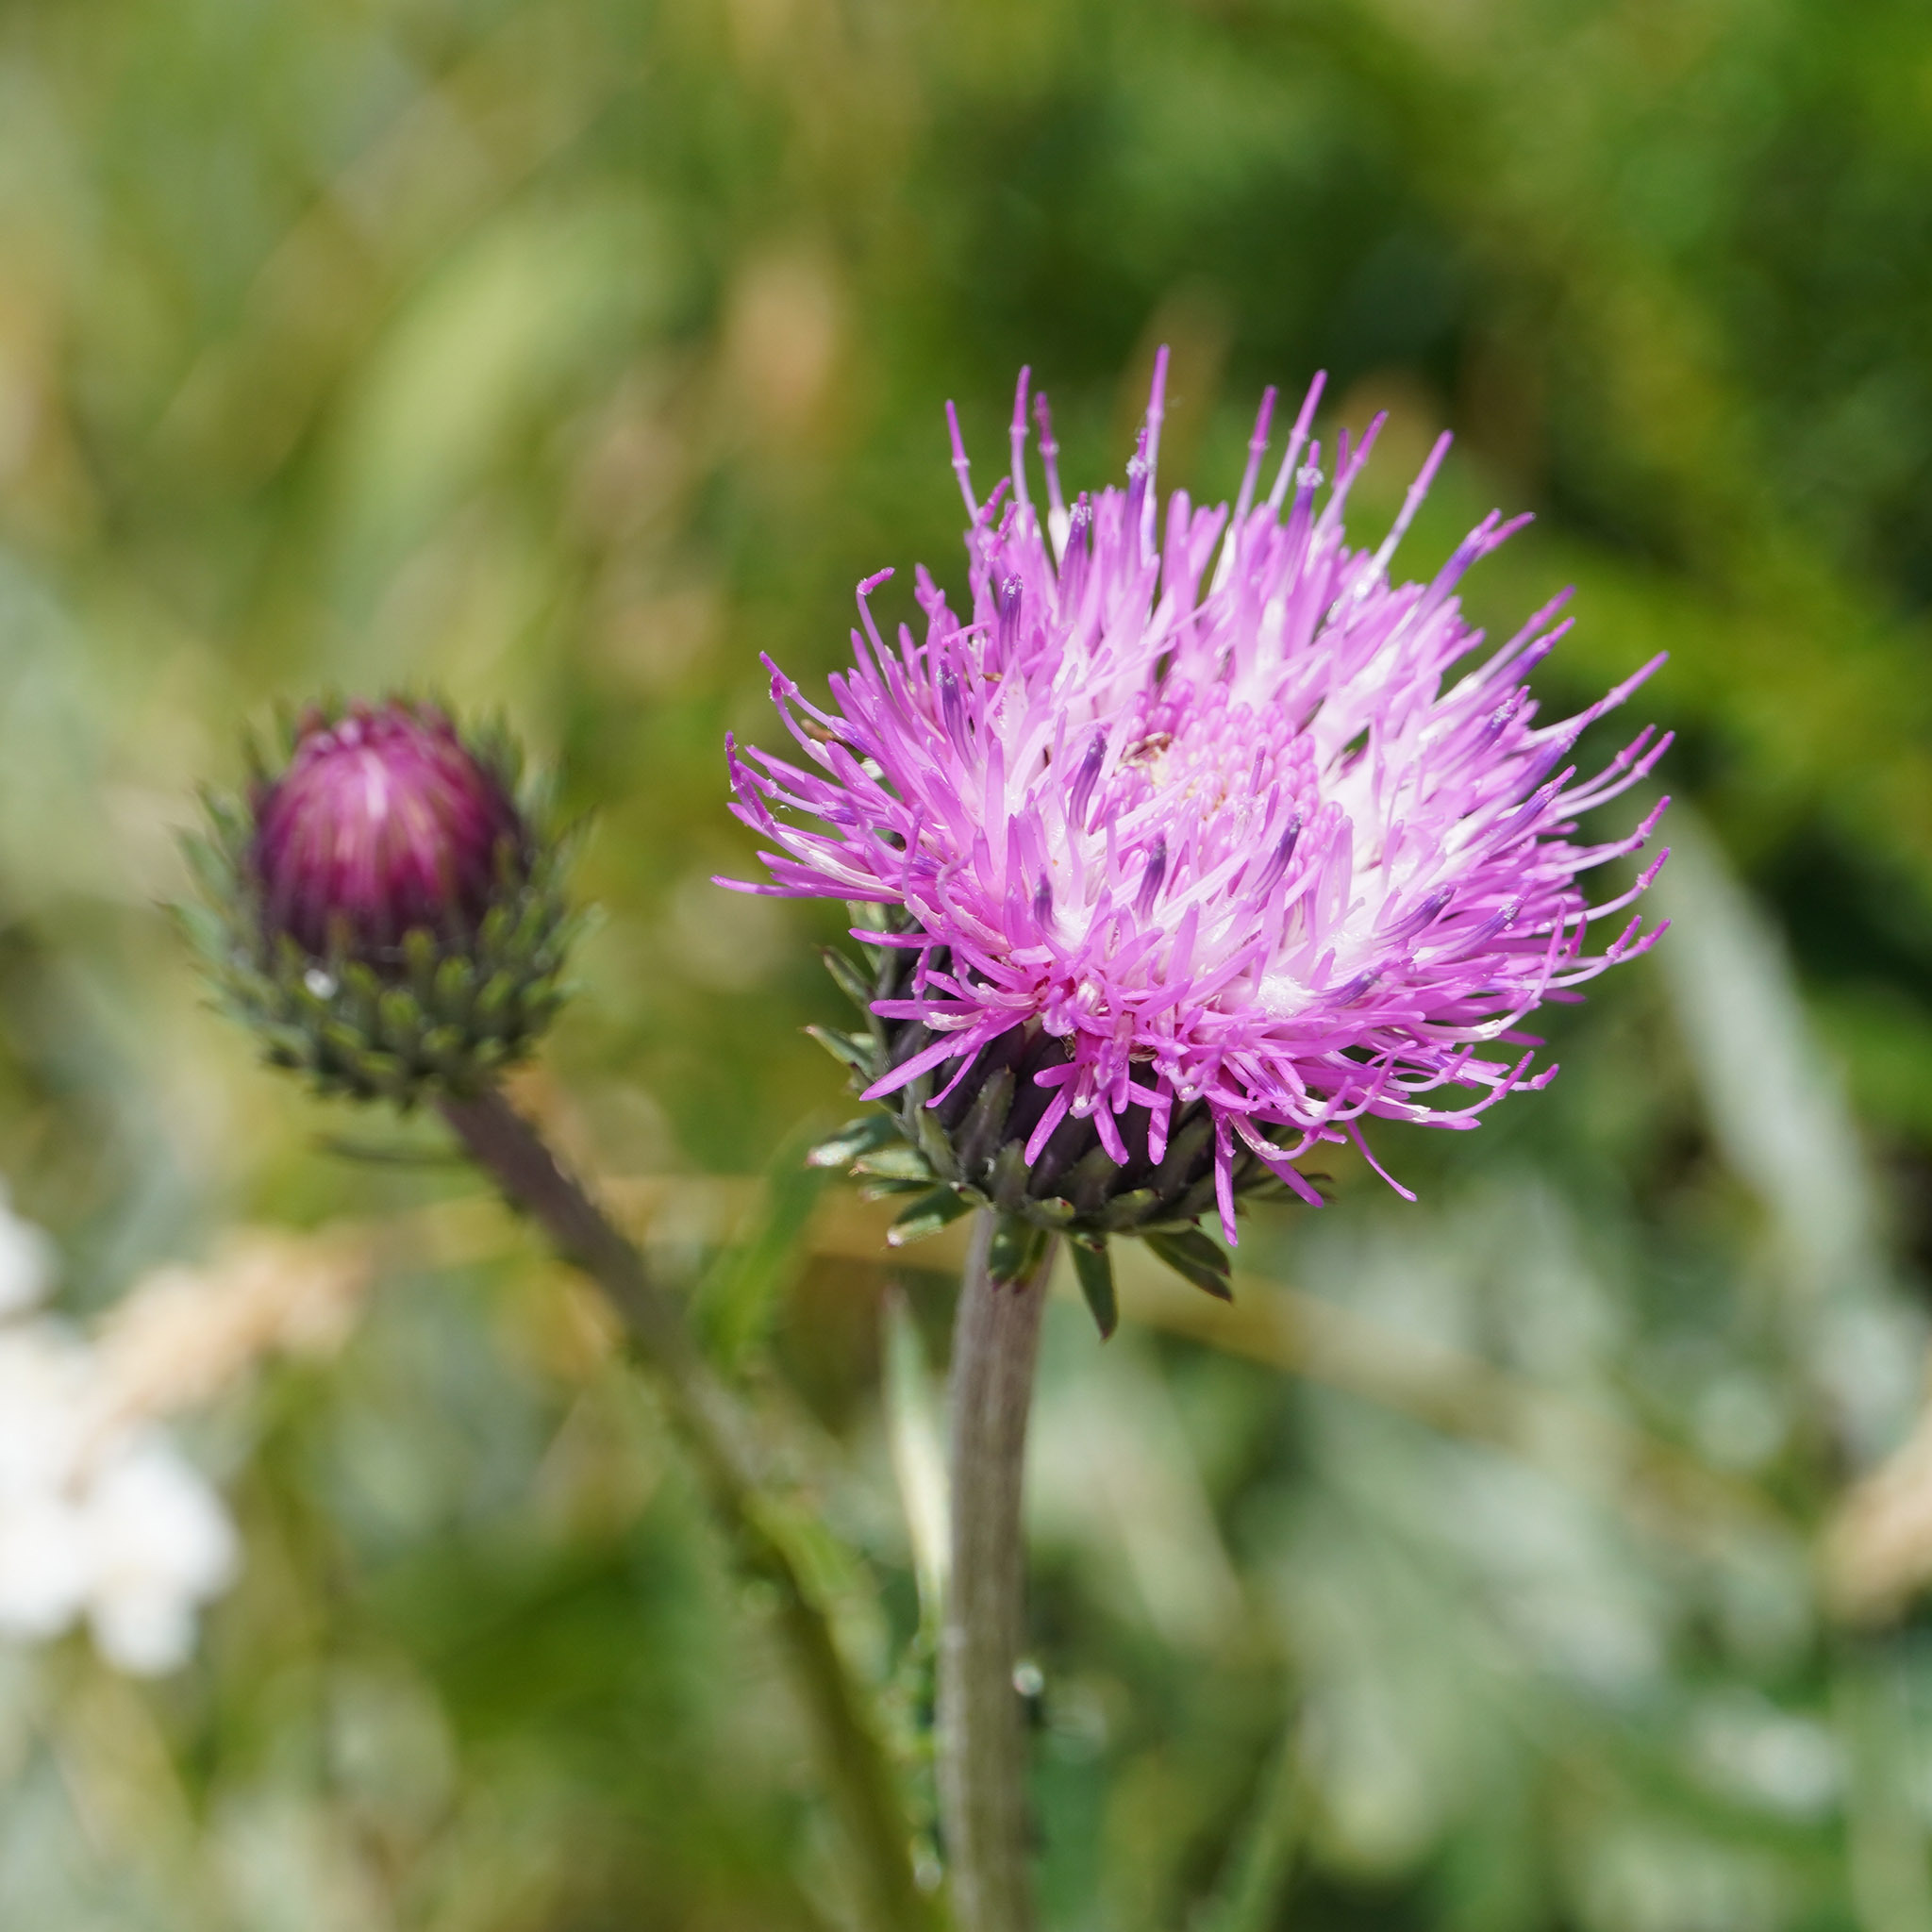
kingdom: Plantae
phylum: Tracheophyta
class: Magnoliopsida
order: Asterales
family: Asteraceae
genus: Carduus
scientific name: Carduus defloratus
